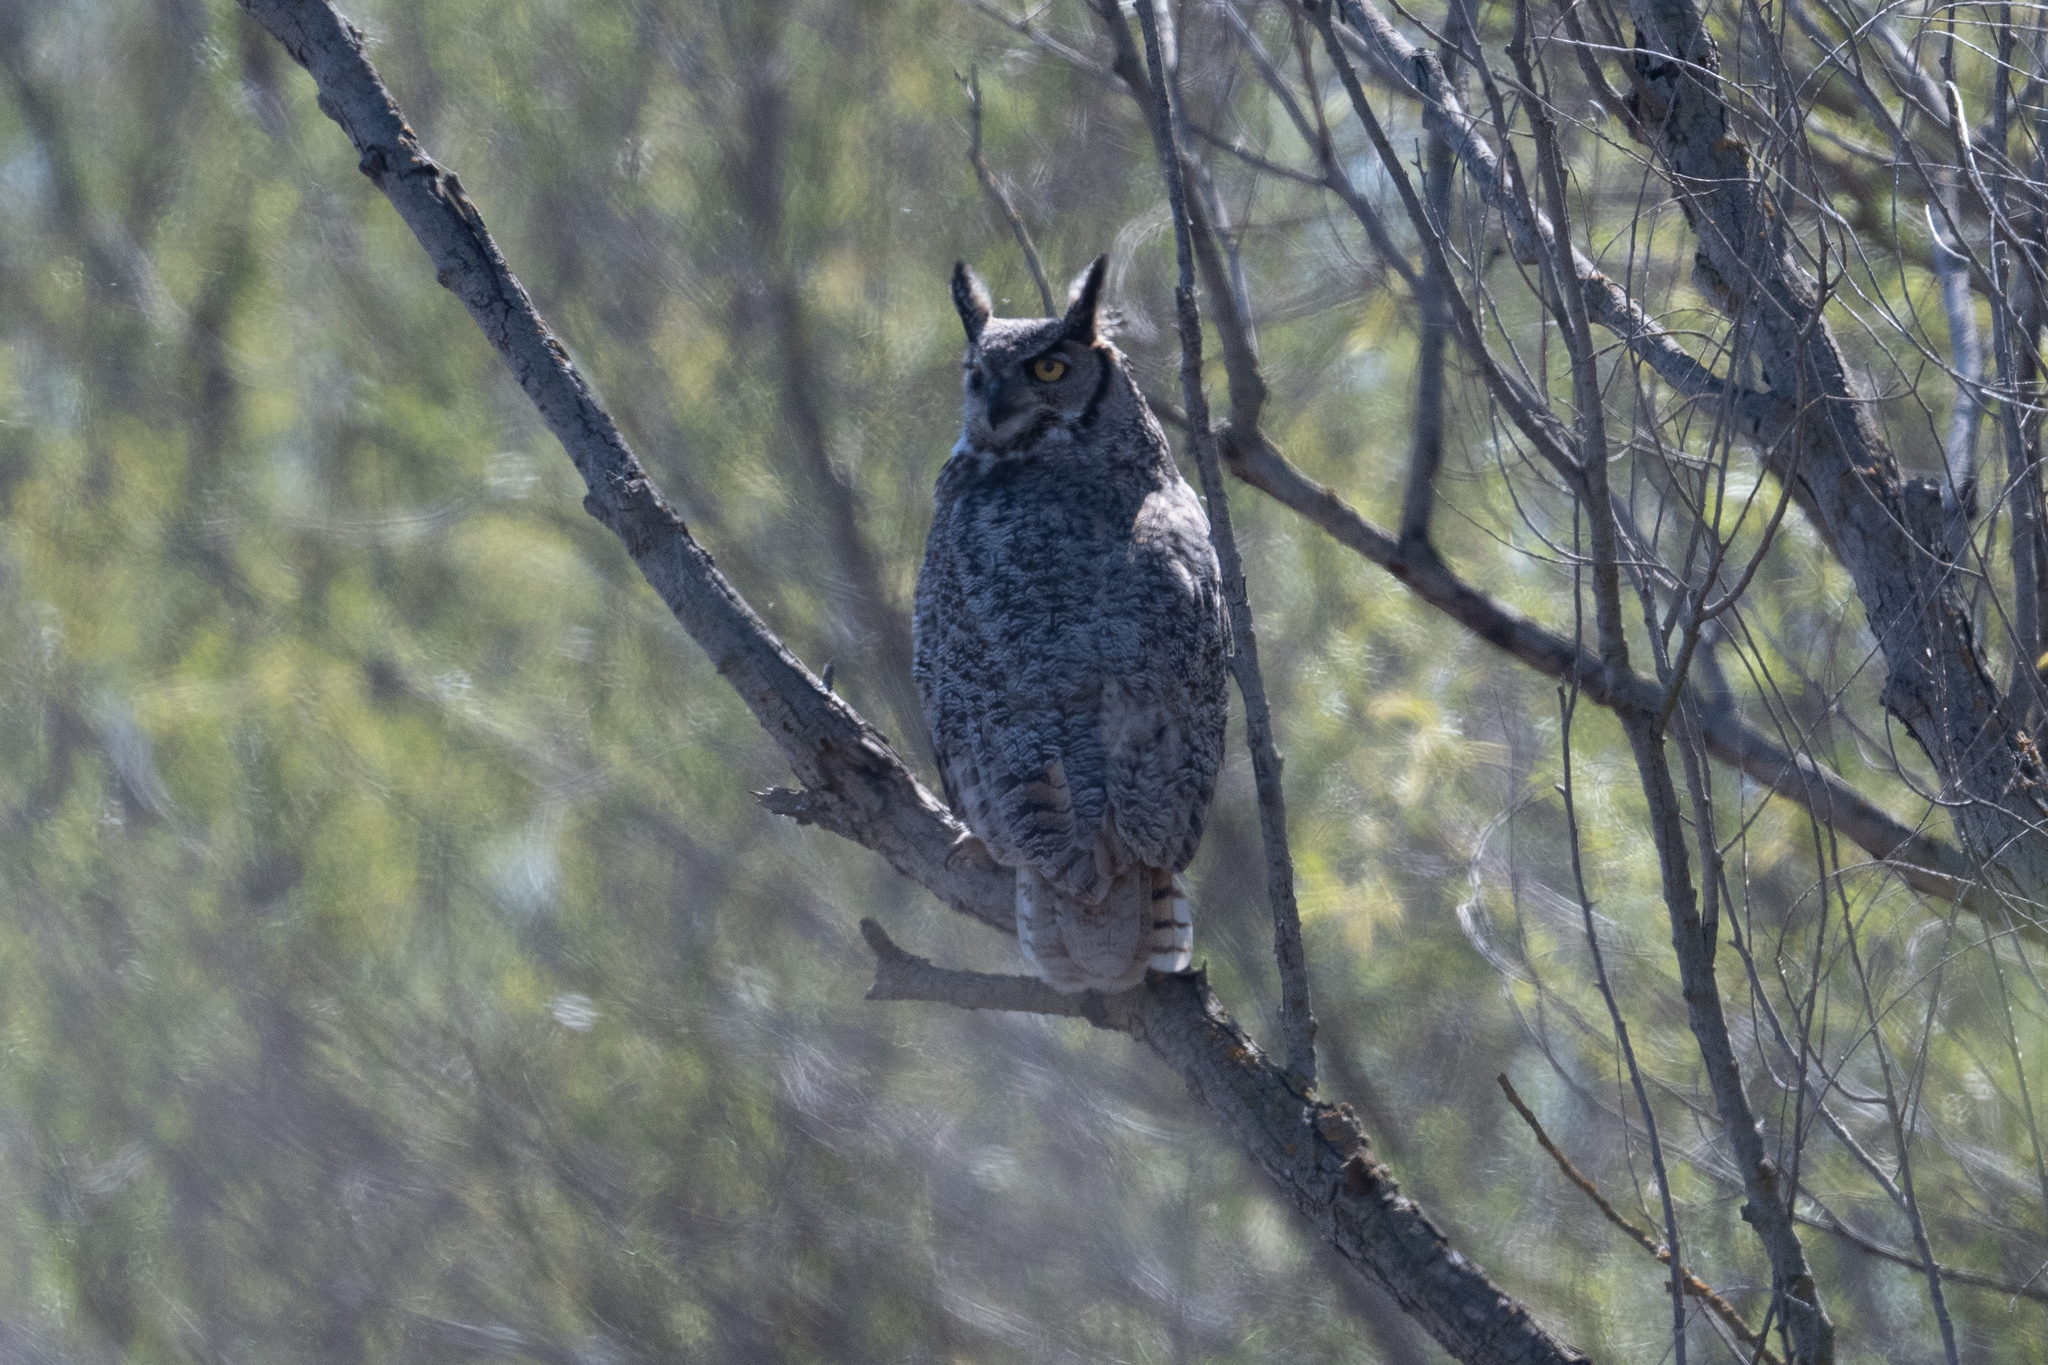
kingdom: Animalia
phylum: Chordata
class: Aves
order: Strigiformes
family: Strigidae
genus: Bubo
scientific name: Bubo virginianus
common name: Great horned owl
